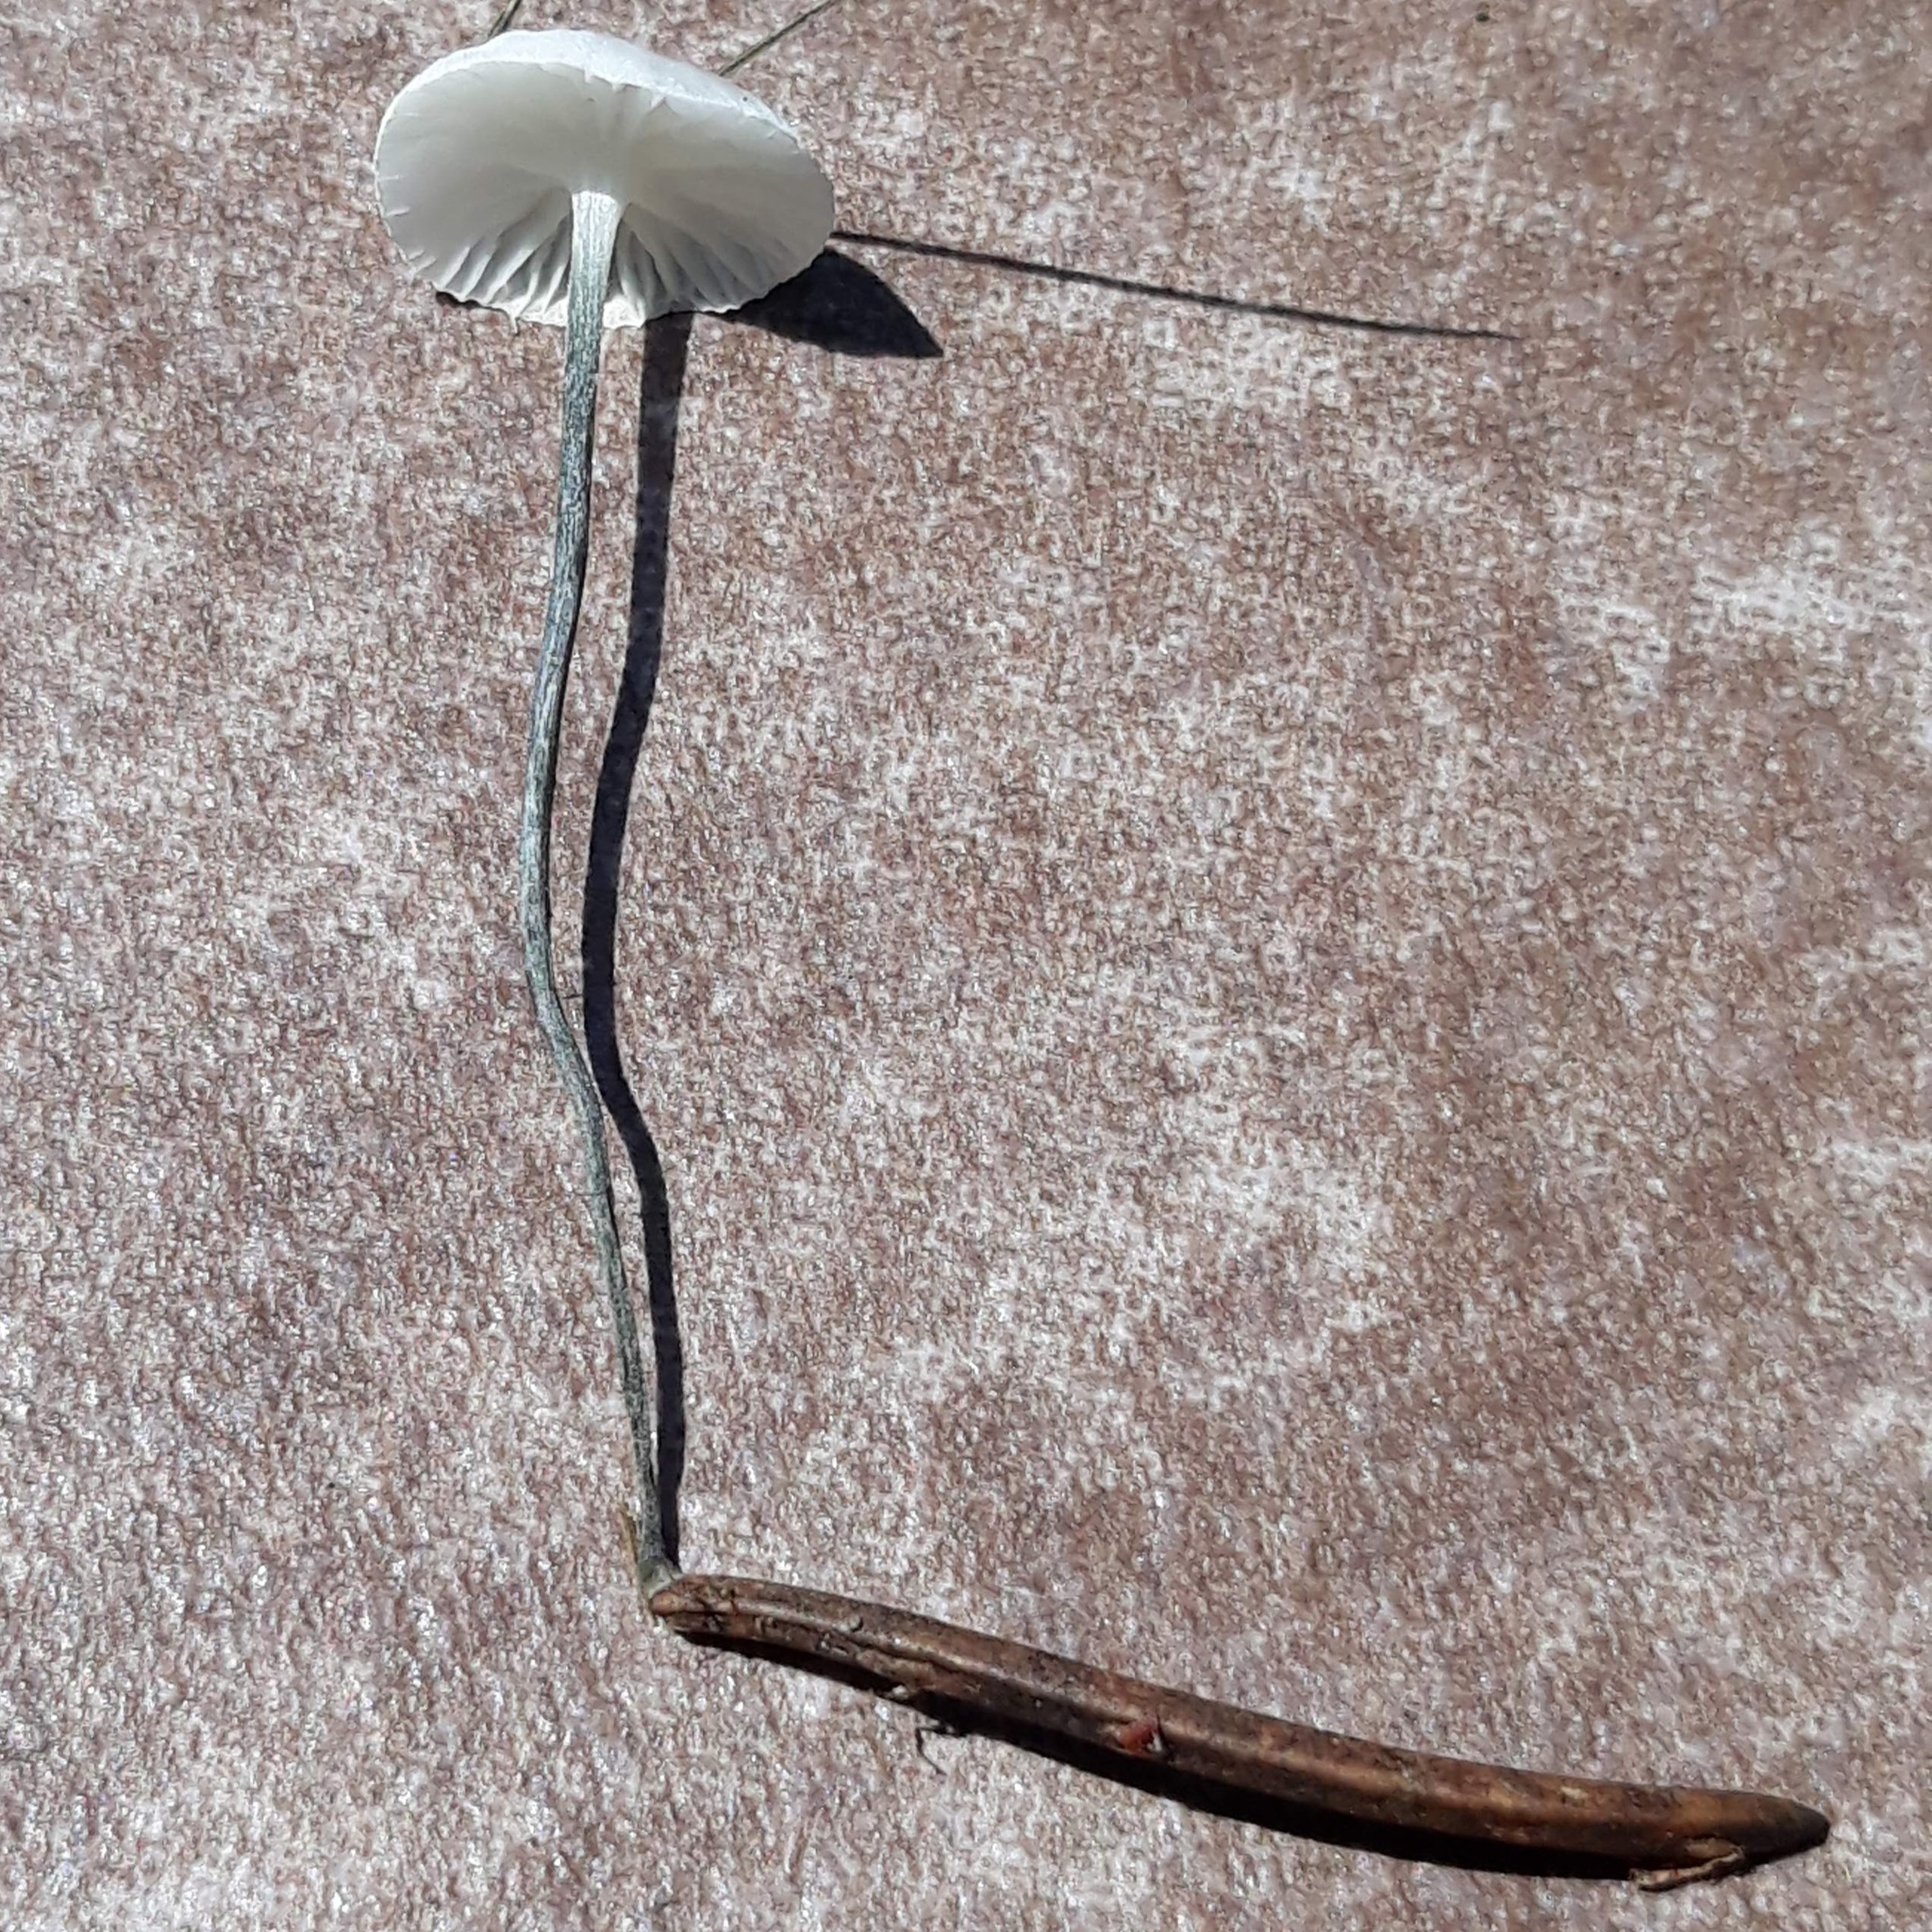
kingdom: Fungi
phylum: Basidiomycota
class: Agaricomycetes
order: Agaricales
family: Marasmiaceae
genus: Tetrapyrgos
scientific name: Tetrapyrgos nigripes
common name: Black-stalked marasmius
